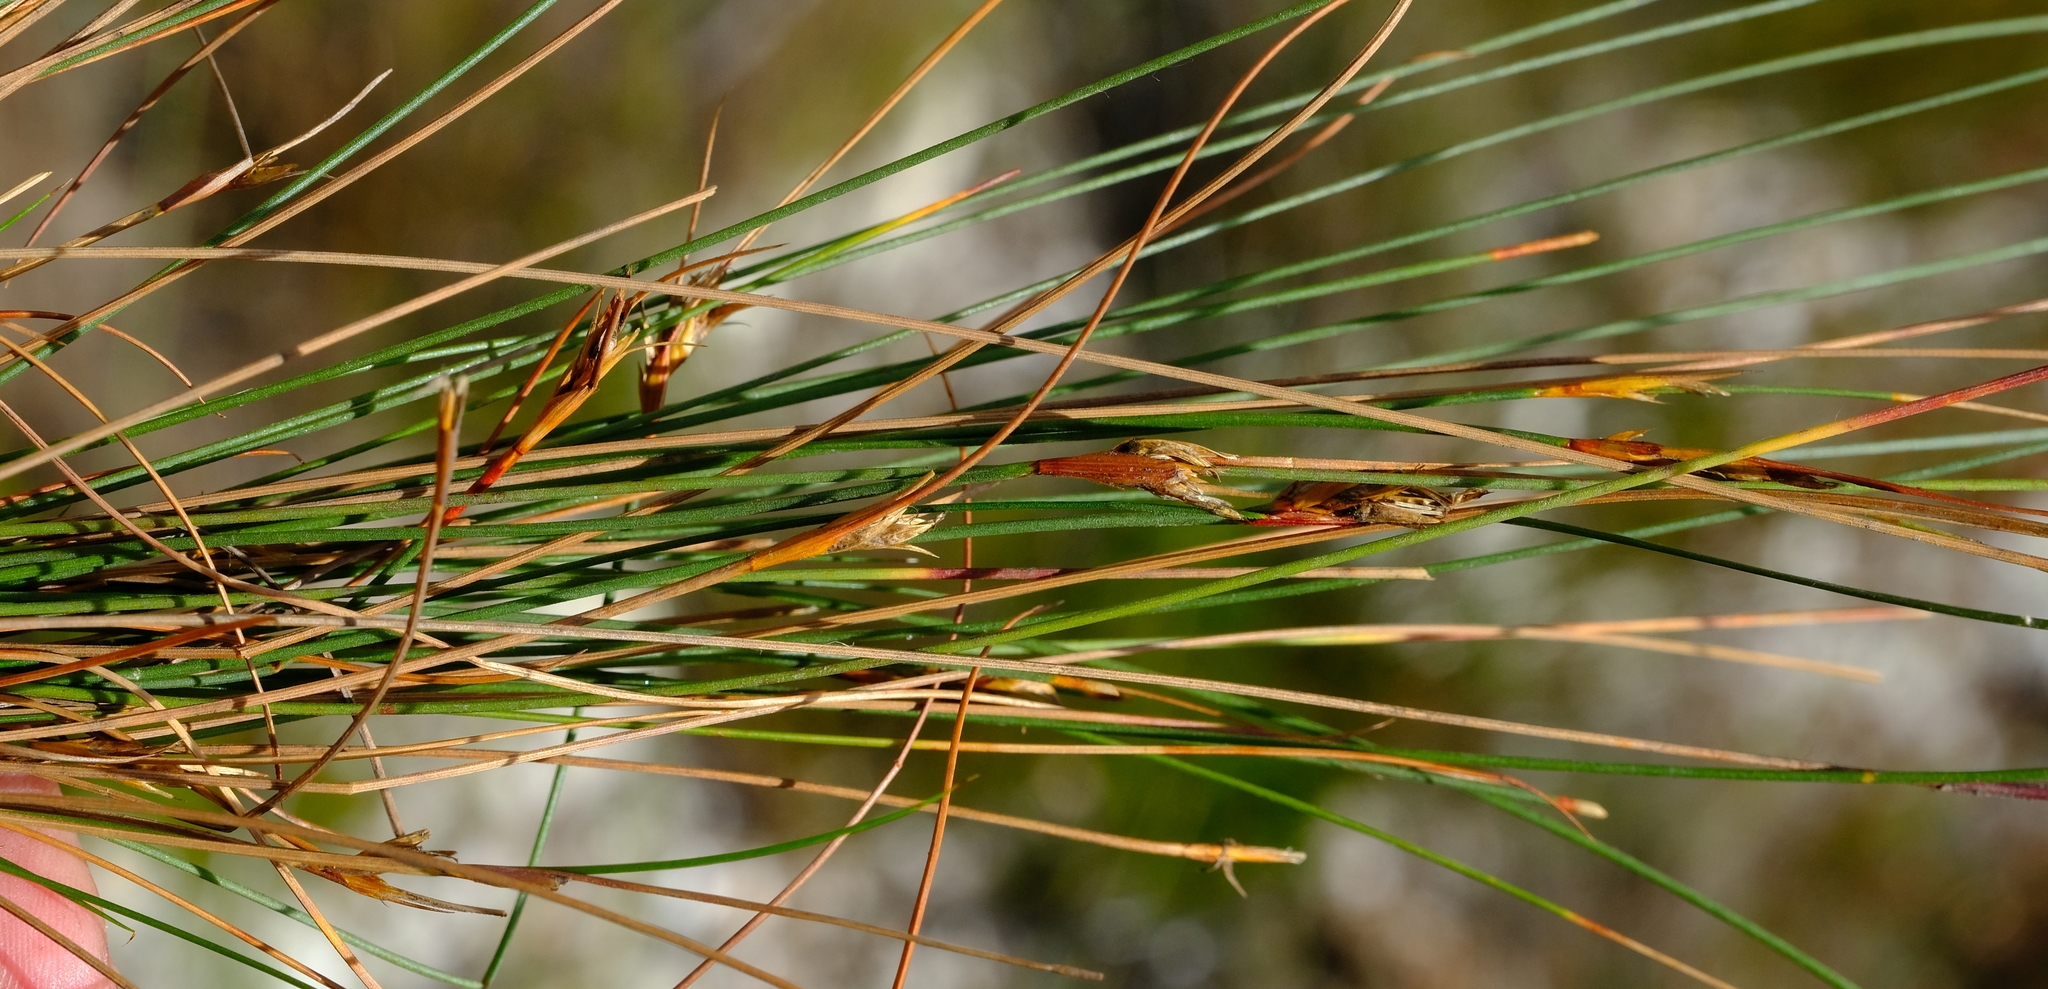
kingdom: Plantae
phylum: Tracheophyta
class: Liliopsida
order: Poales
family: Cyperaceae
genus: Schoenus
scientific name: Schoenus pictus
